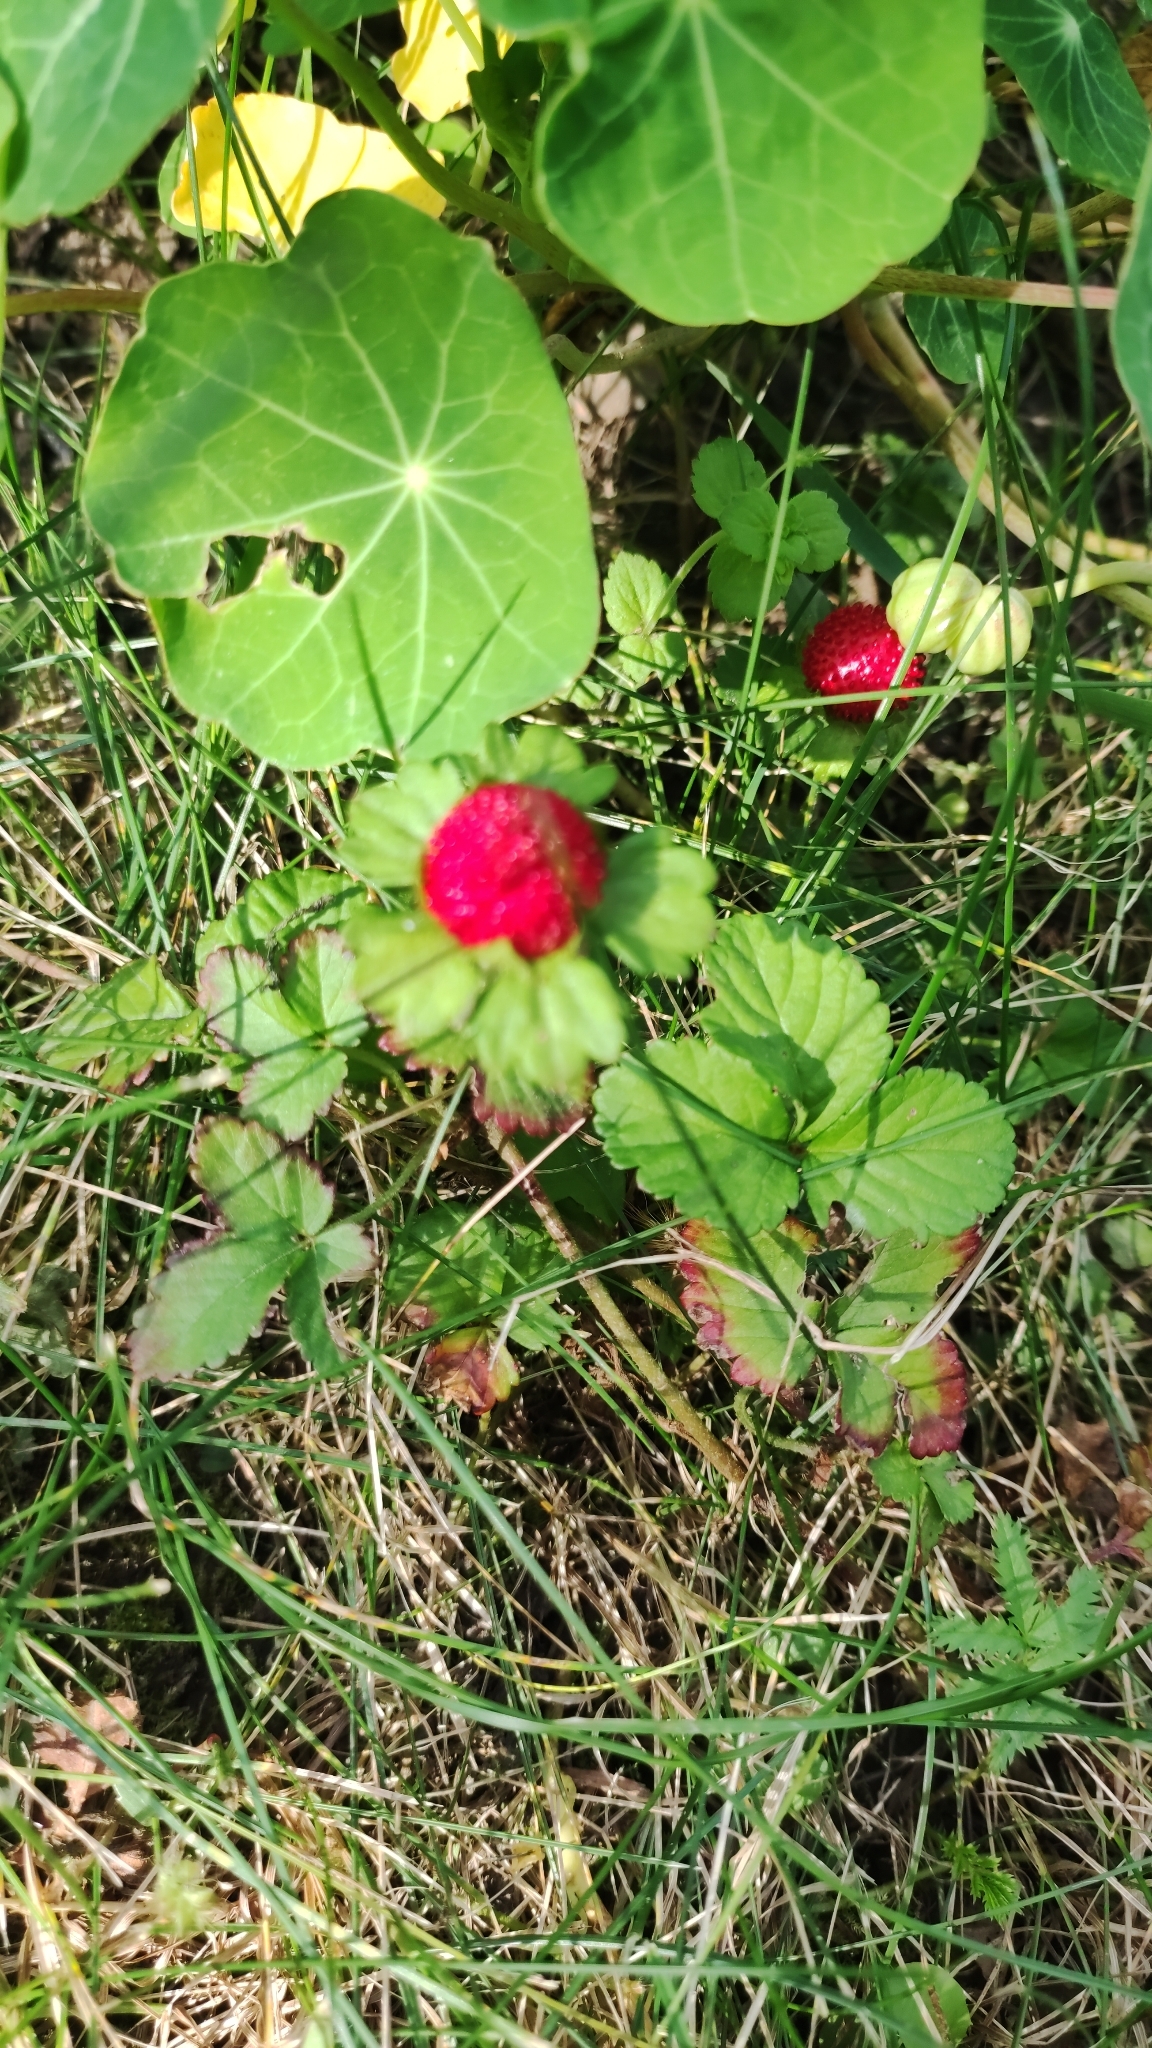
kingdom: Plantae
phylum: Tracheophyta
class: Magnoliopsida
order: Rosales
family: Rosaceae
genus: Potentilla
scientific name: Potentilla indica
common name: Yellow-flowered strawberry
